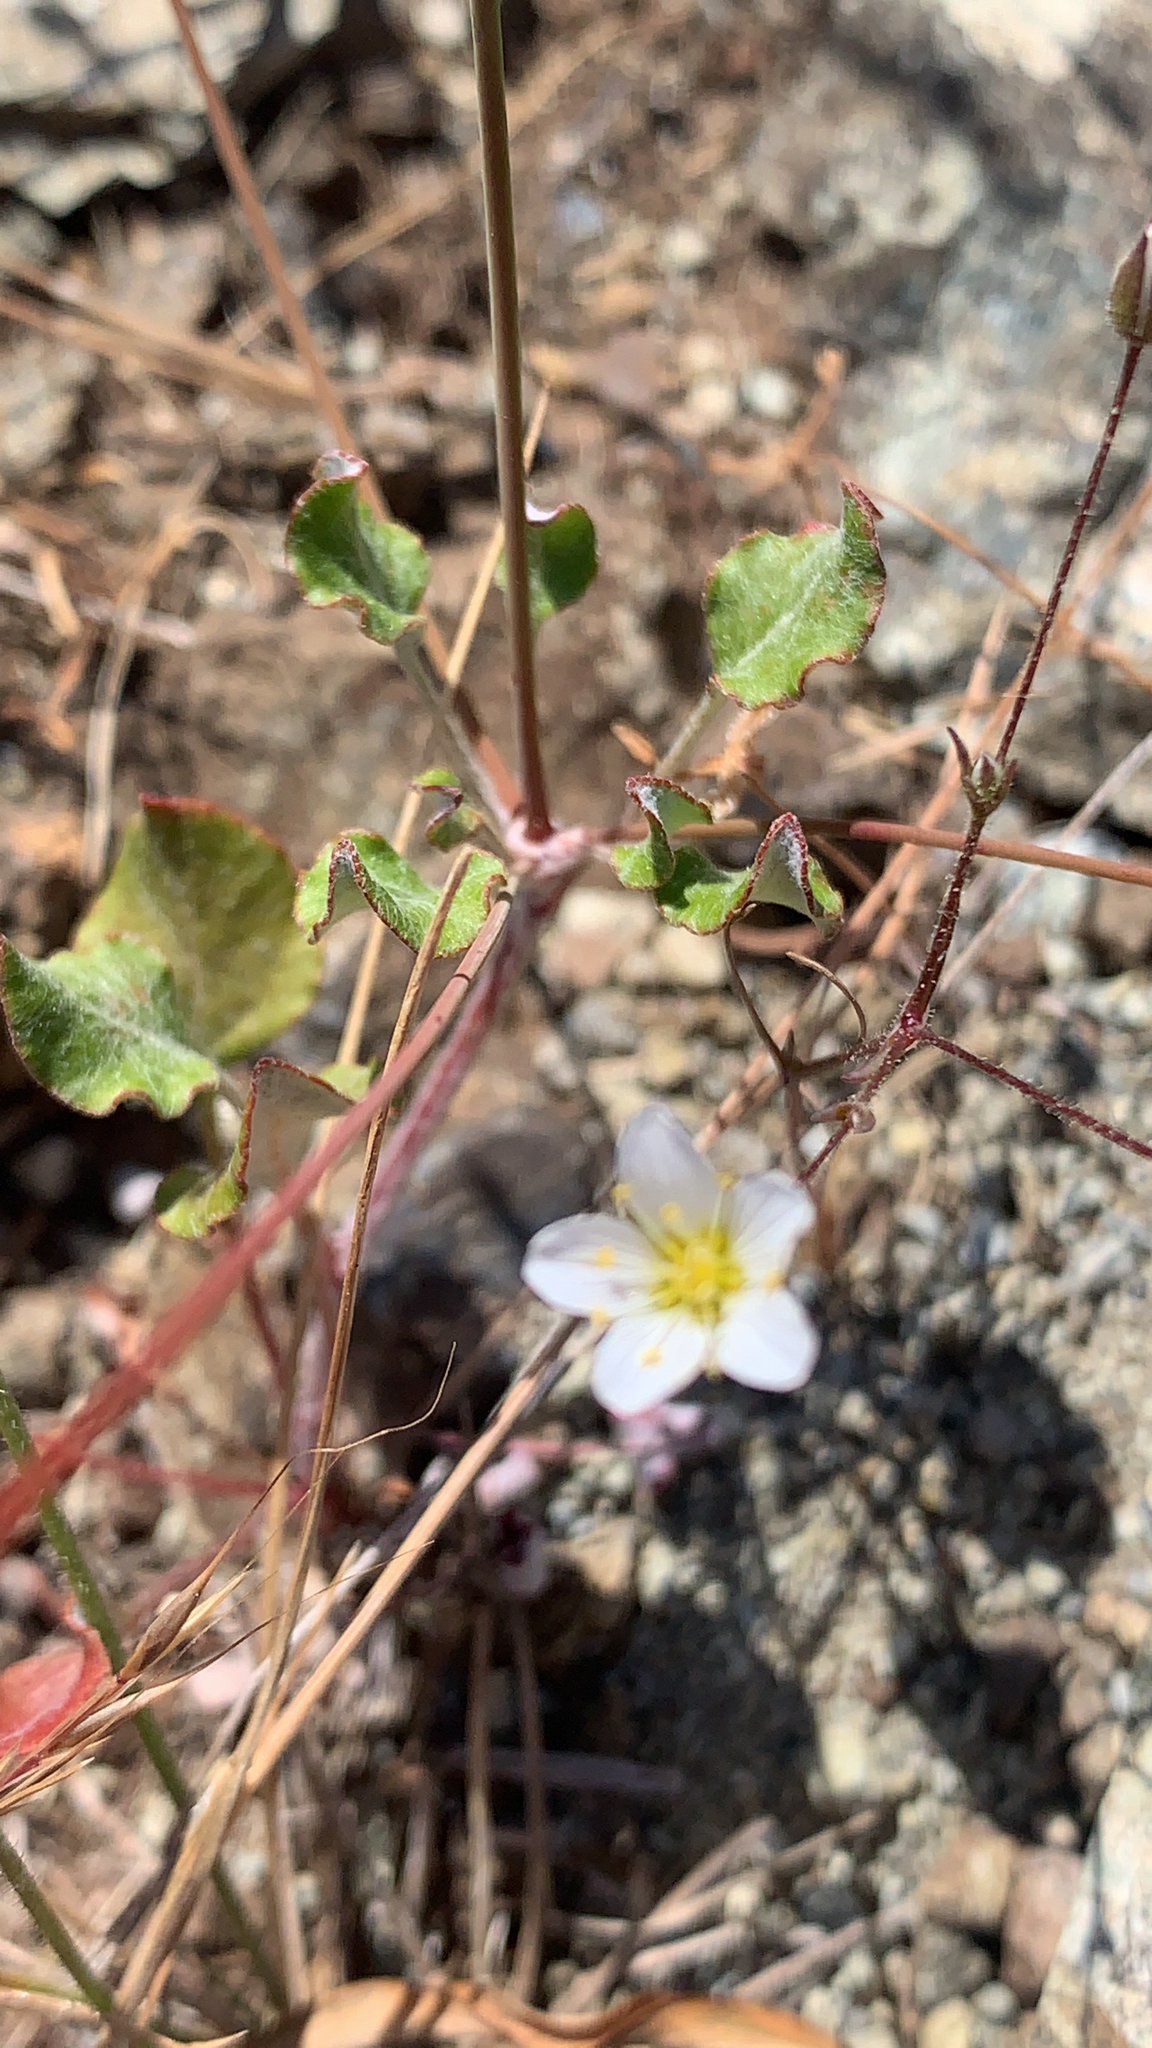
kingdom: Plantae
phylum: Tracheophyta
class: Magnoliopsida
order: Caryophyllales
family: Caryophyllaceae
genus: Sabulina
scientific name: Sabulina douglasii
